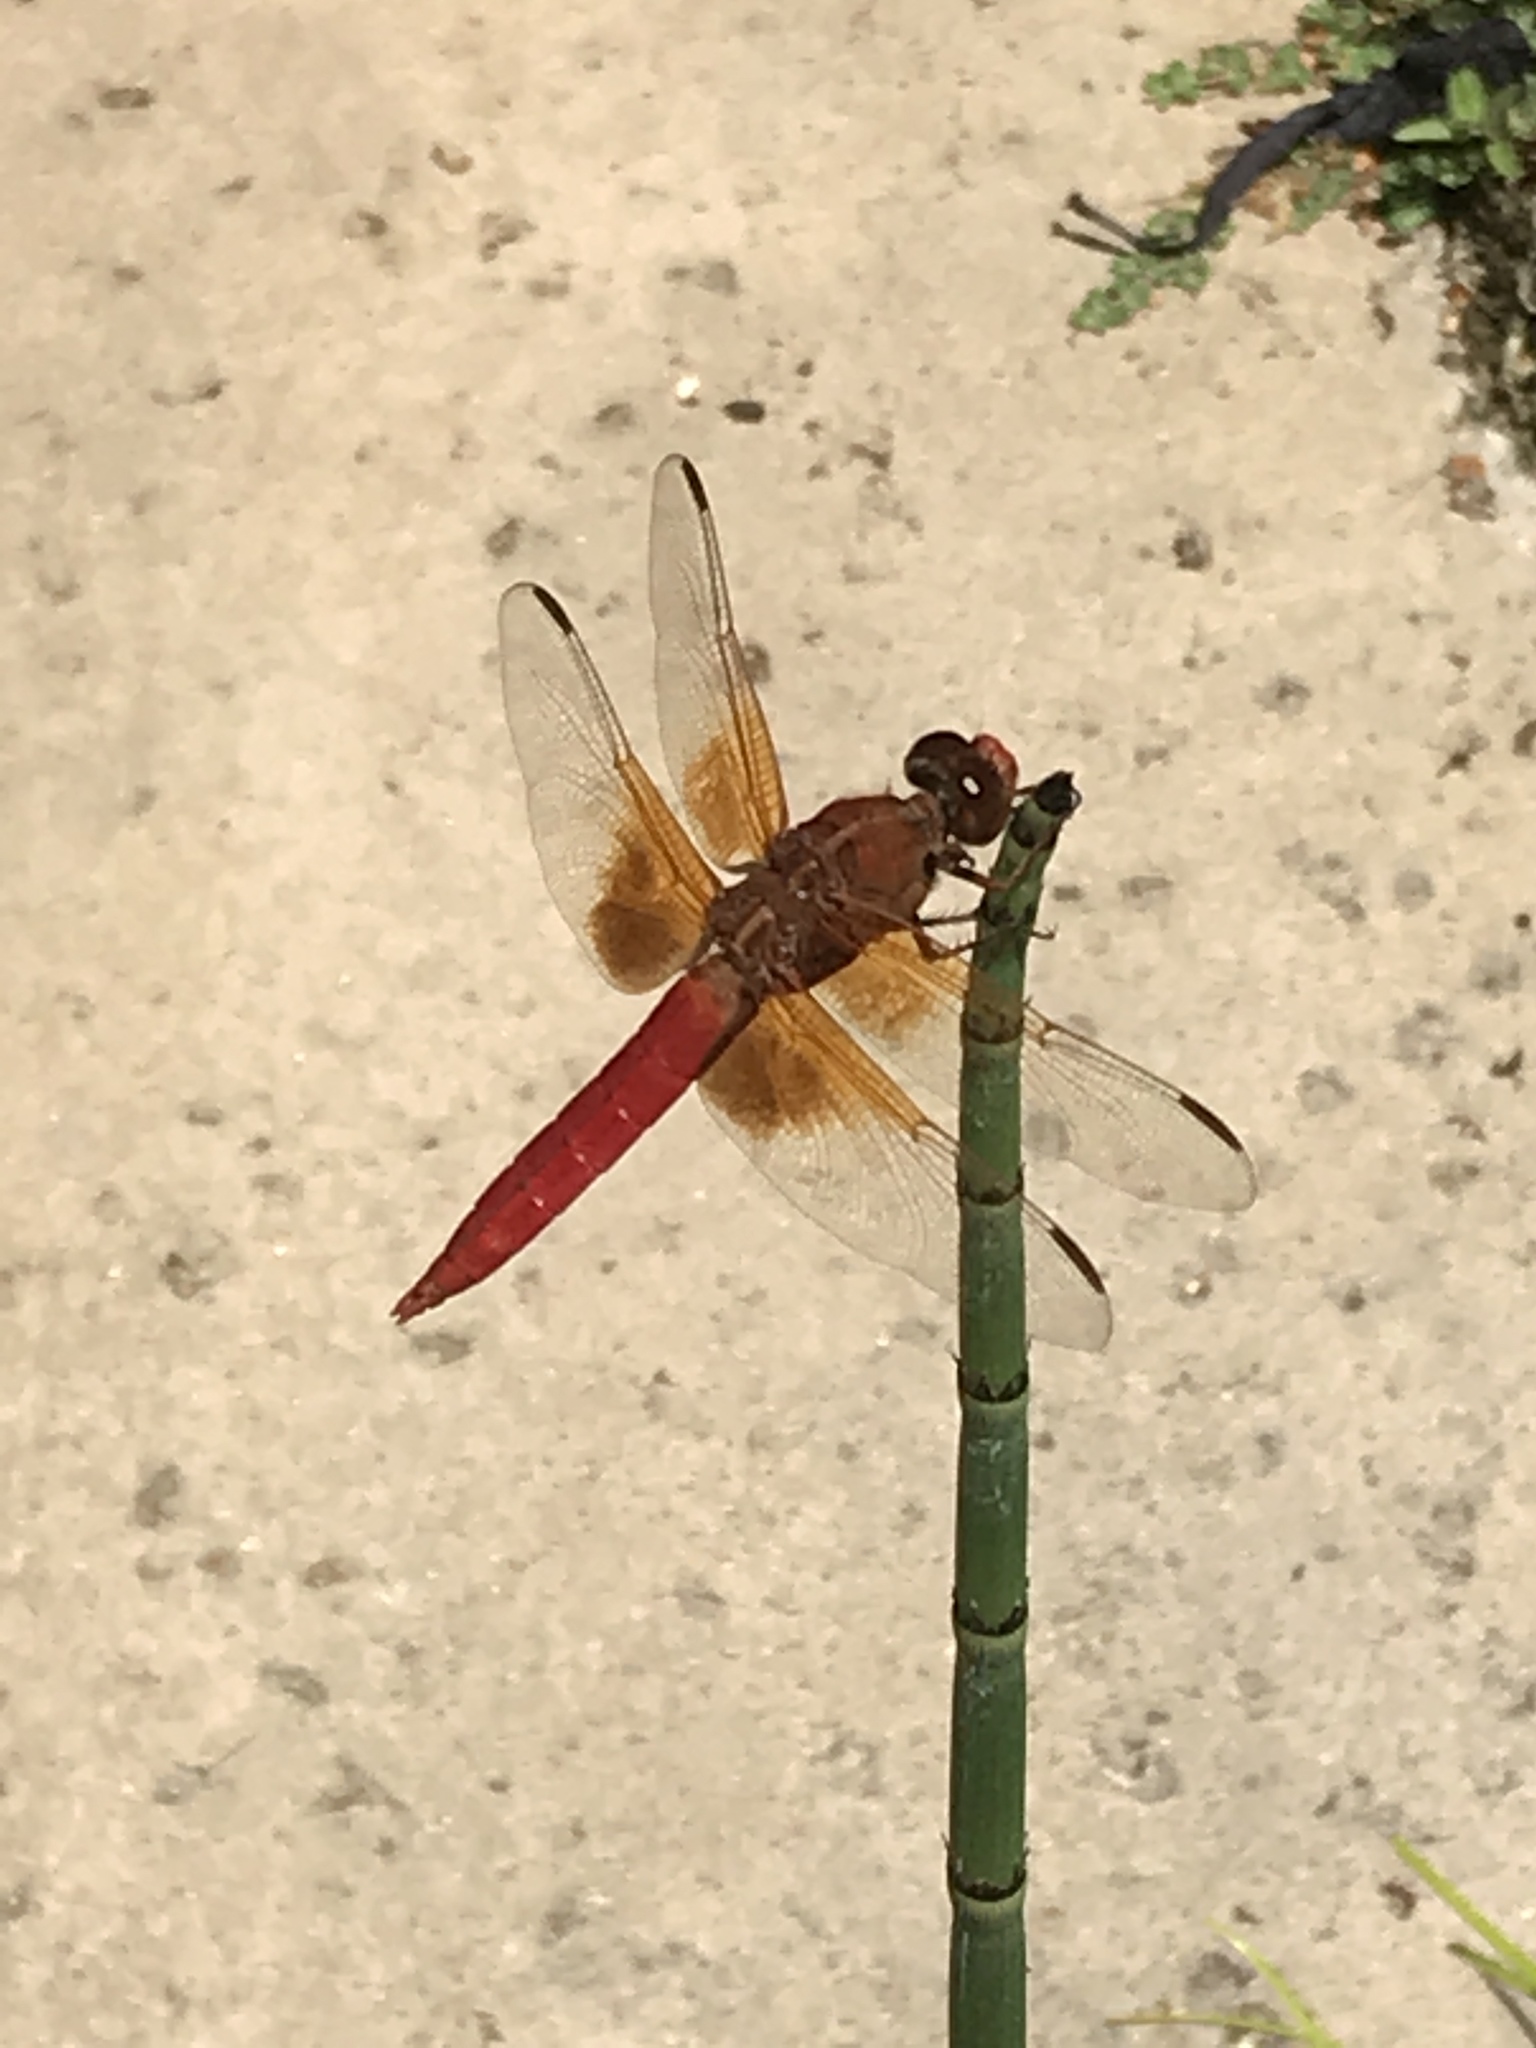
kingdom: Animalia
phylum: Arthropoda
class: Insecta
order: Odonata
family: Libellulidae
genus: Libellula
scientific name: Libellula croceipennis
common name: Neon skimmer
